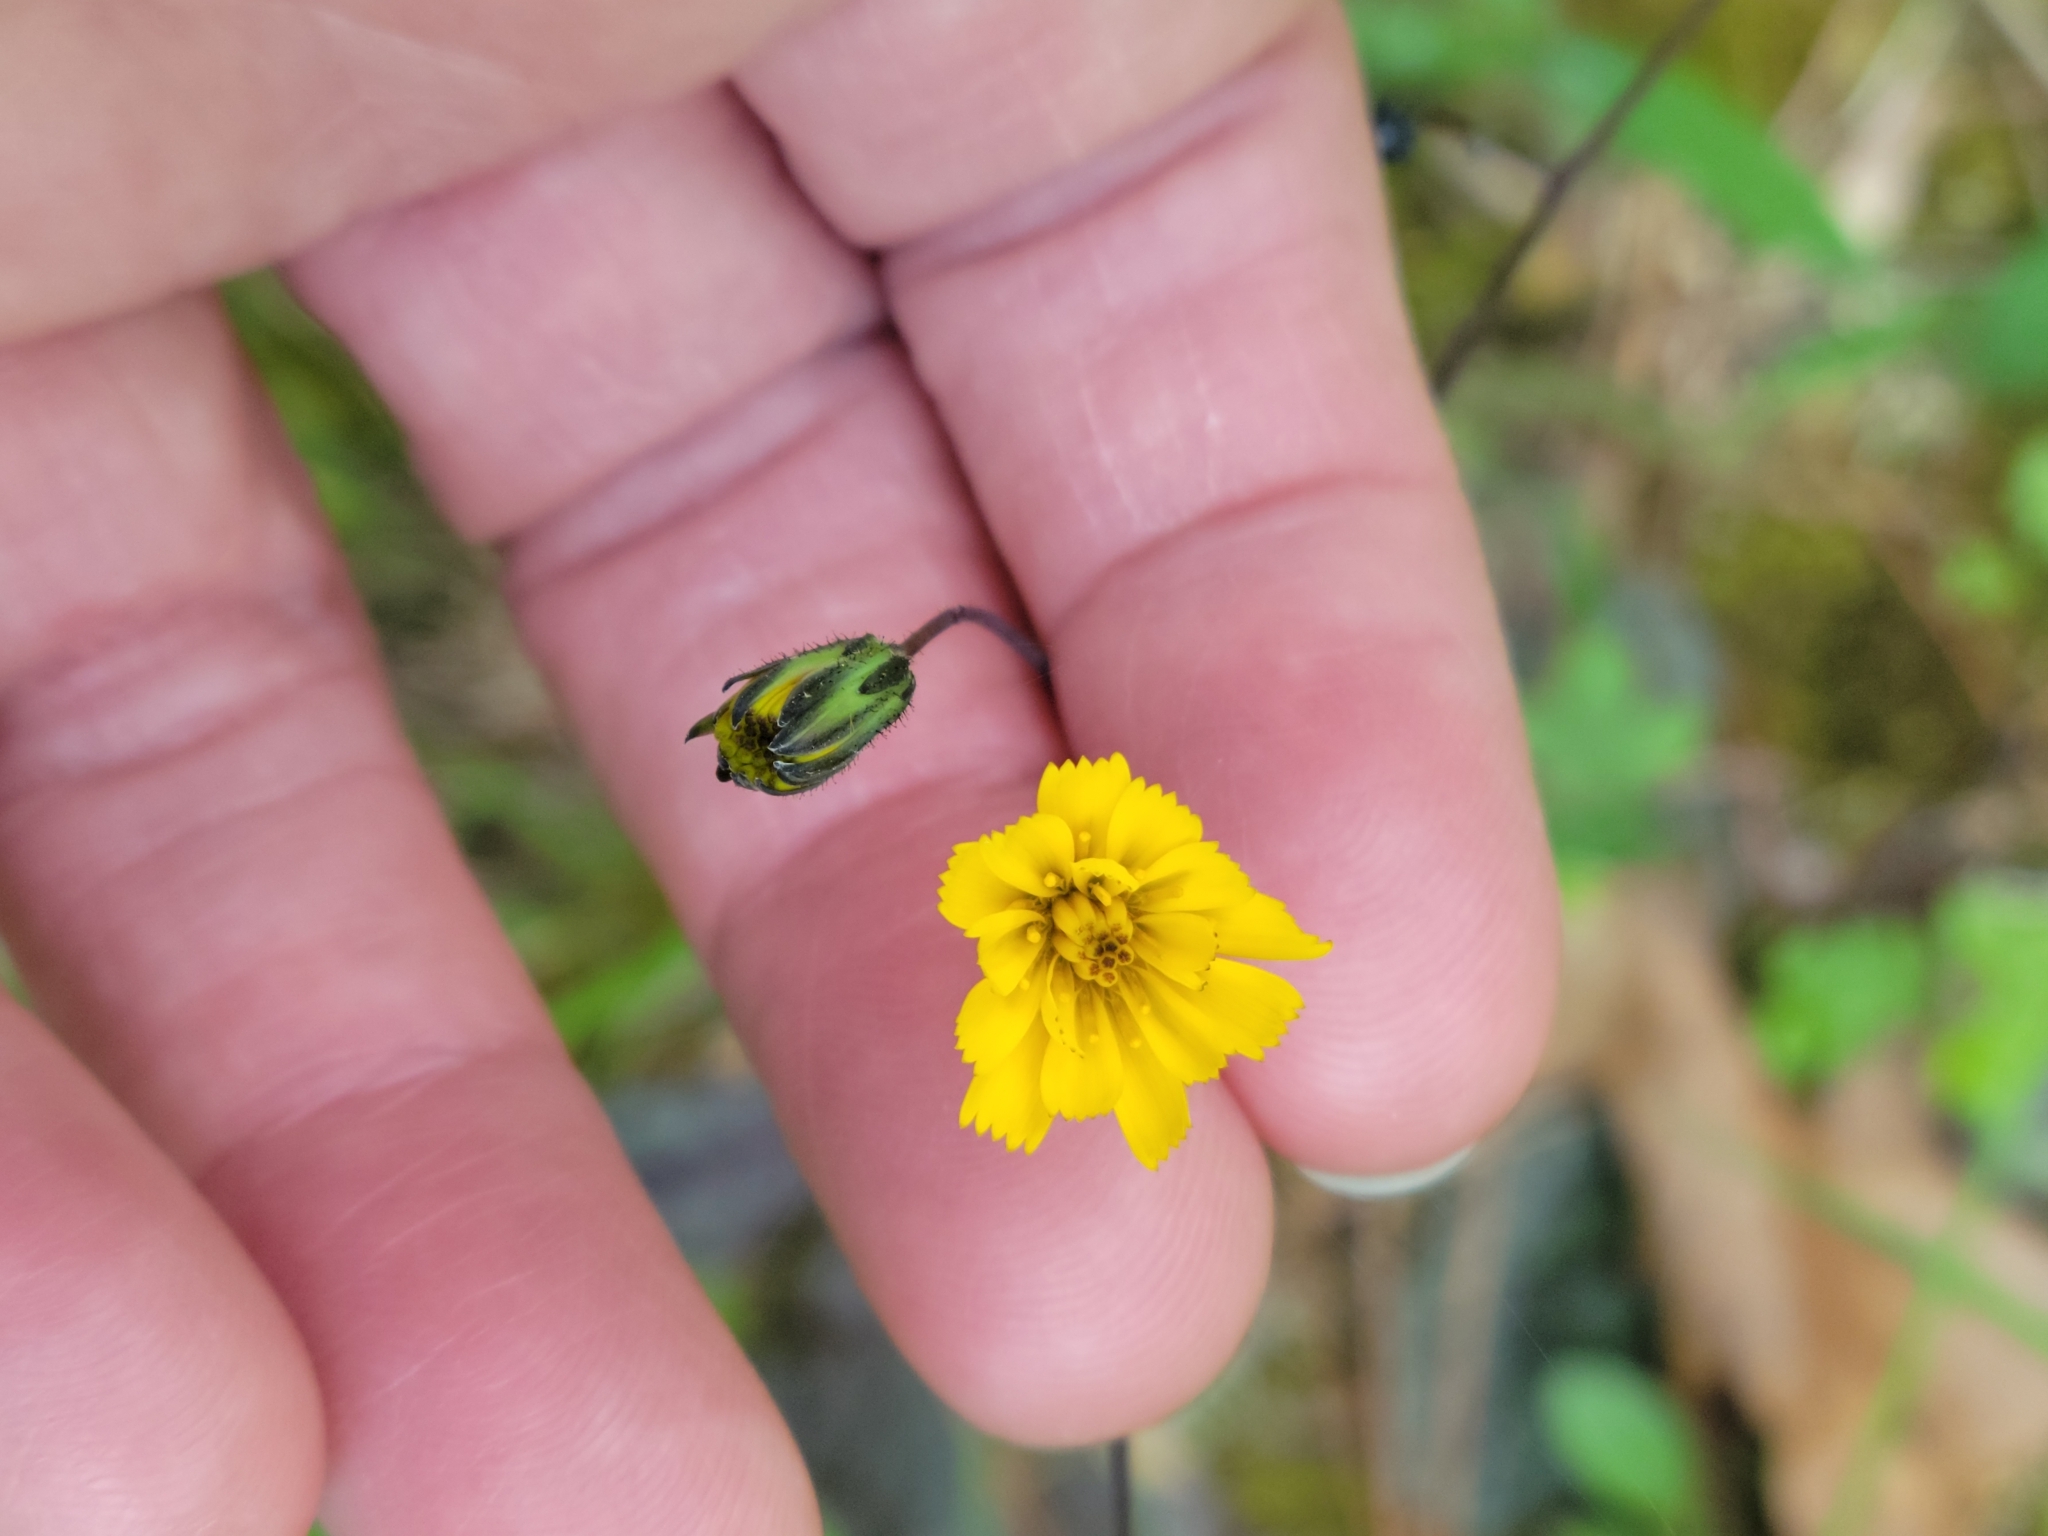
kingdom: Plantae
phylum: Tracheophyta
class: Magnoliopsida
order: Asterales
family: Asteraceae
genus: Hieracium
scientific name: Hieracium venosum
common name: Rattlesnake hawkweed
